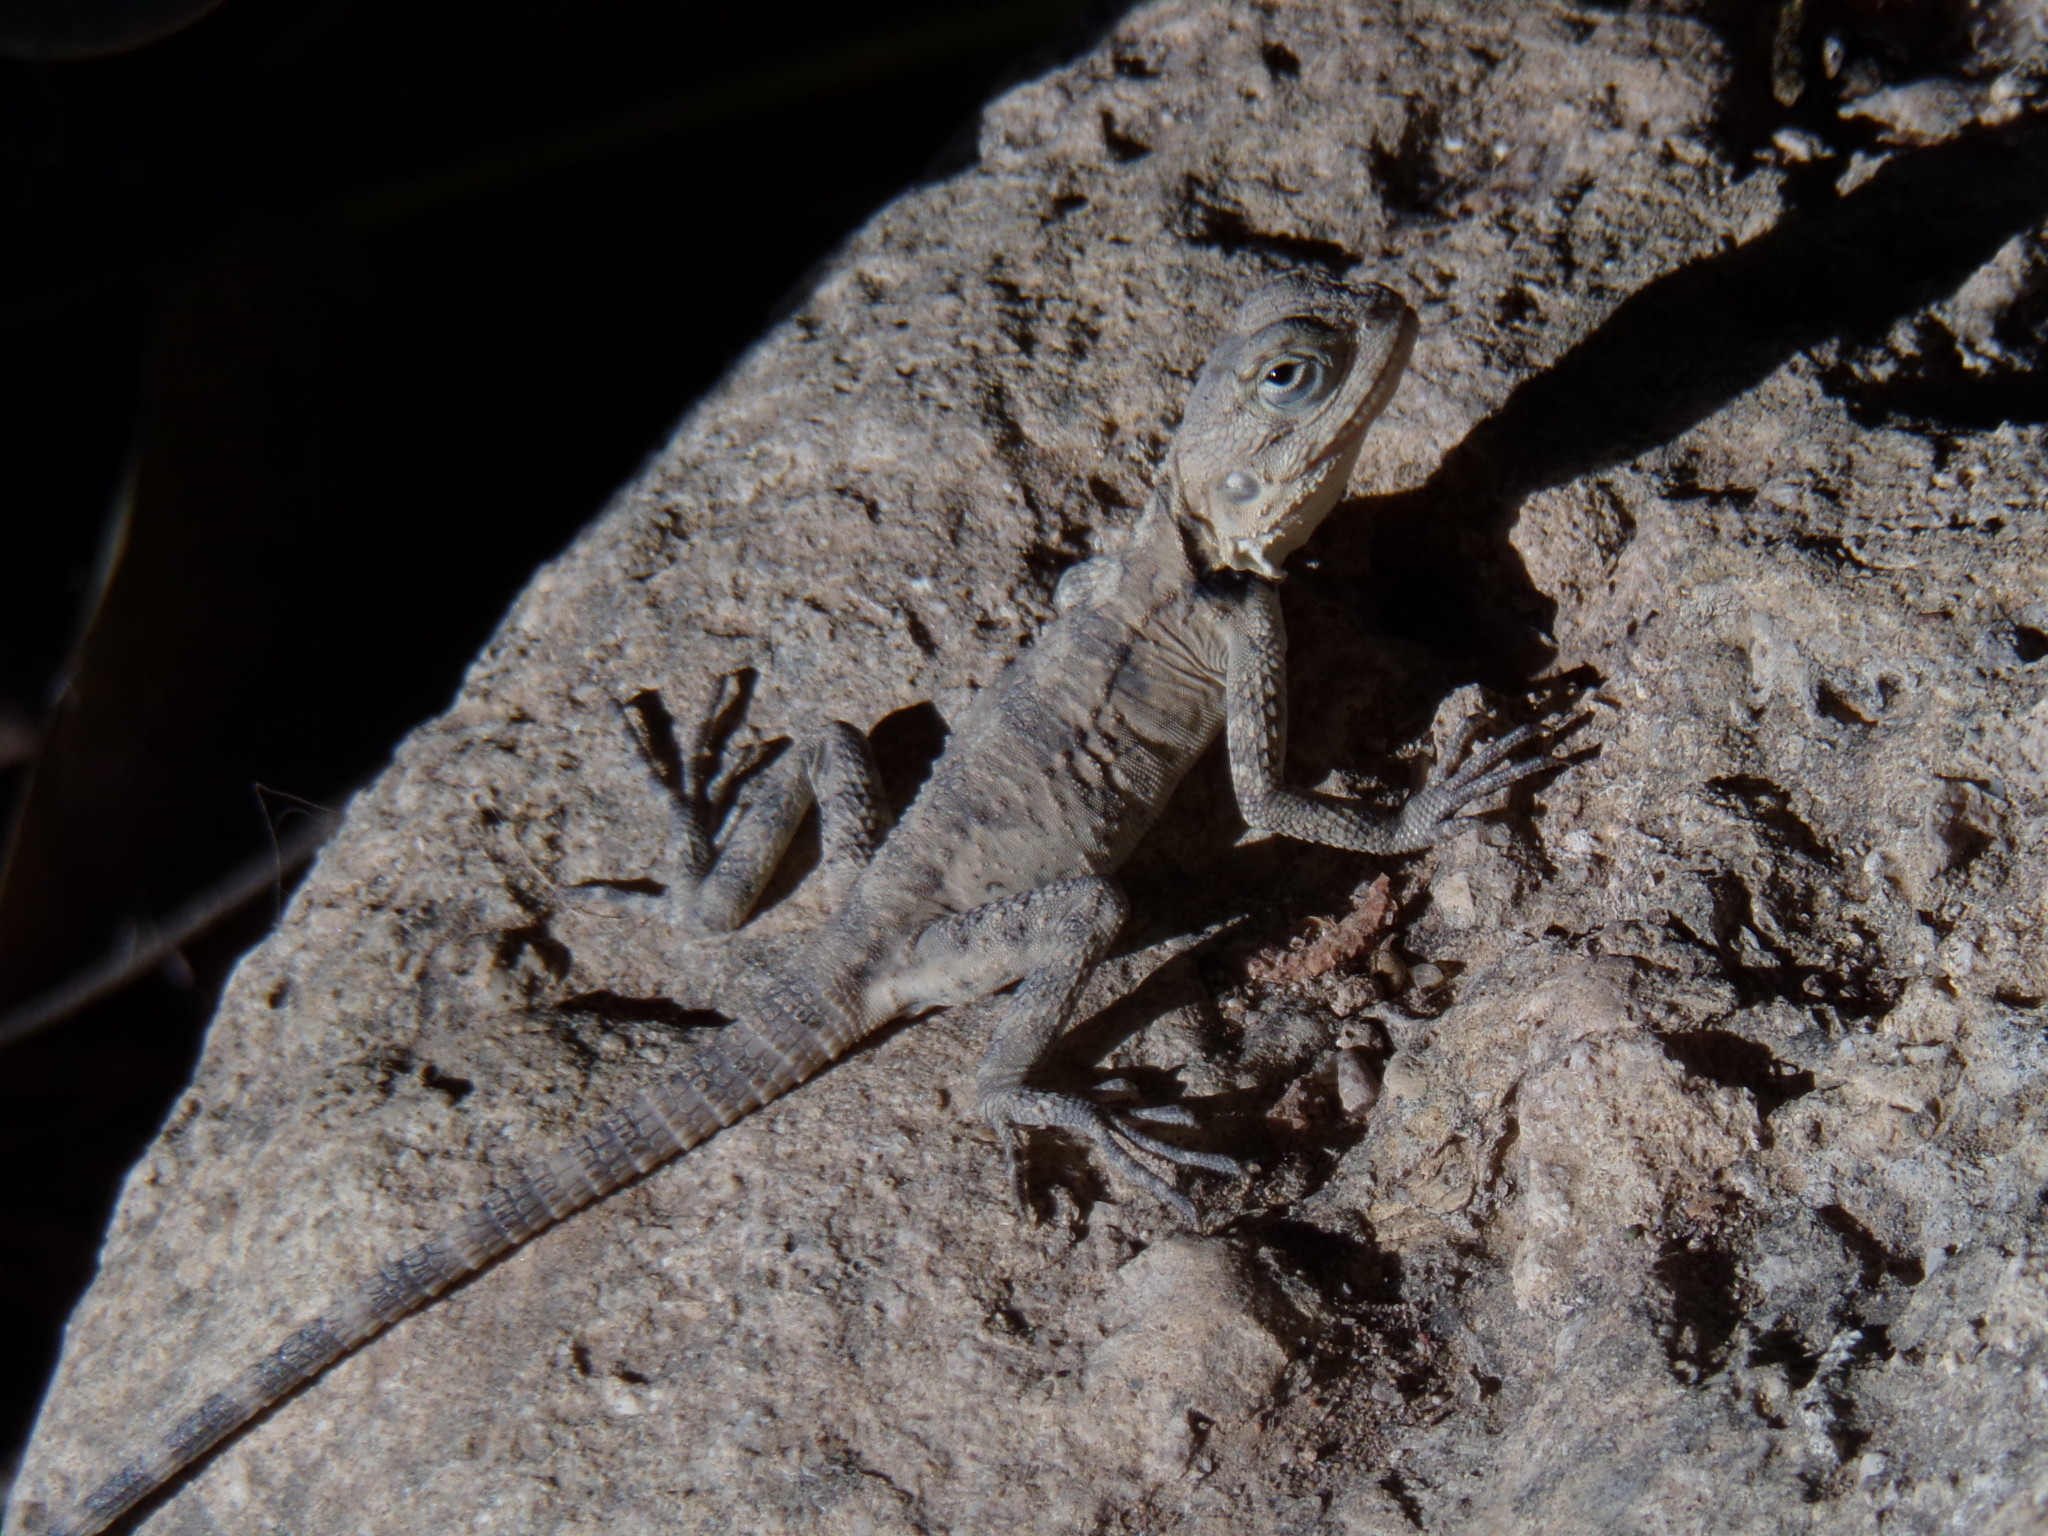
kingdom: Animalia
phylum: Chordata
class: Squamata
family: Agamidae
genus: Laudakia
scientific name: Laudakia
